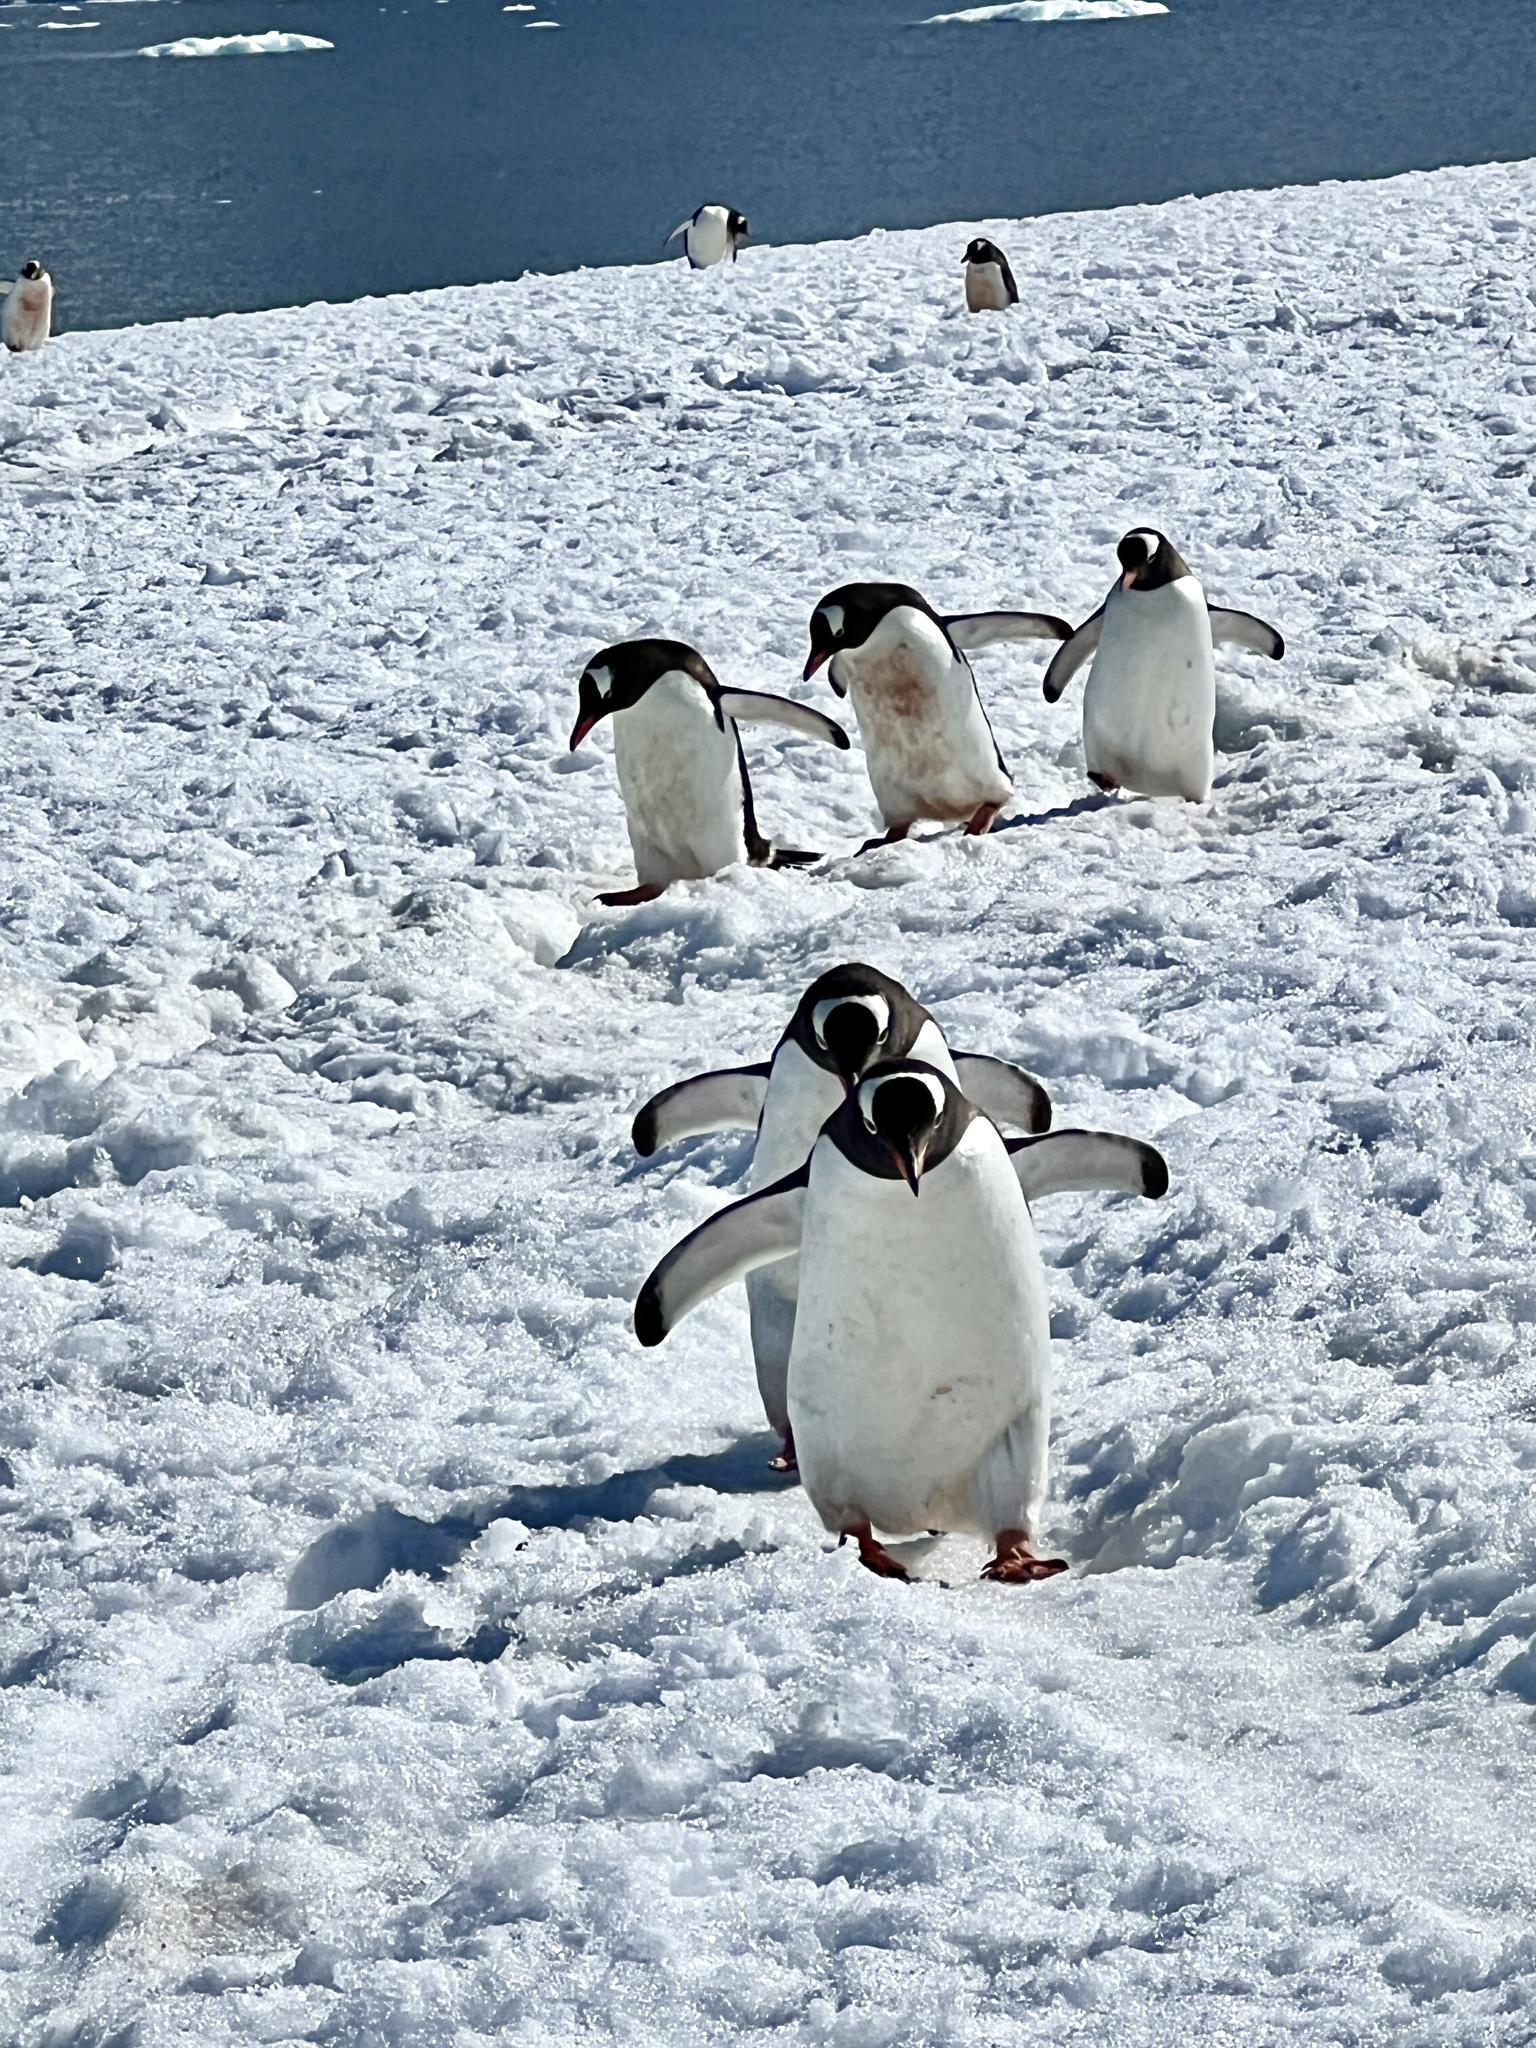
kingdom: Animalia
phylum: Chordata
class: Aves
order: Sphenisciformes
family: Spheniscidae
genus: Pygoscelis
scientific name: Pygoscelis papua
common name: Gentoo penguin
